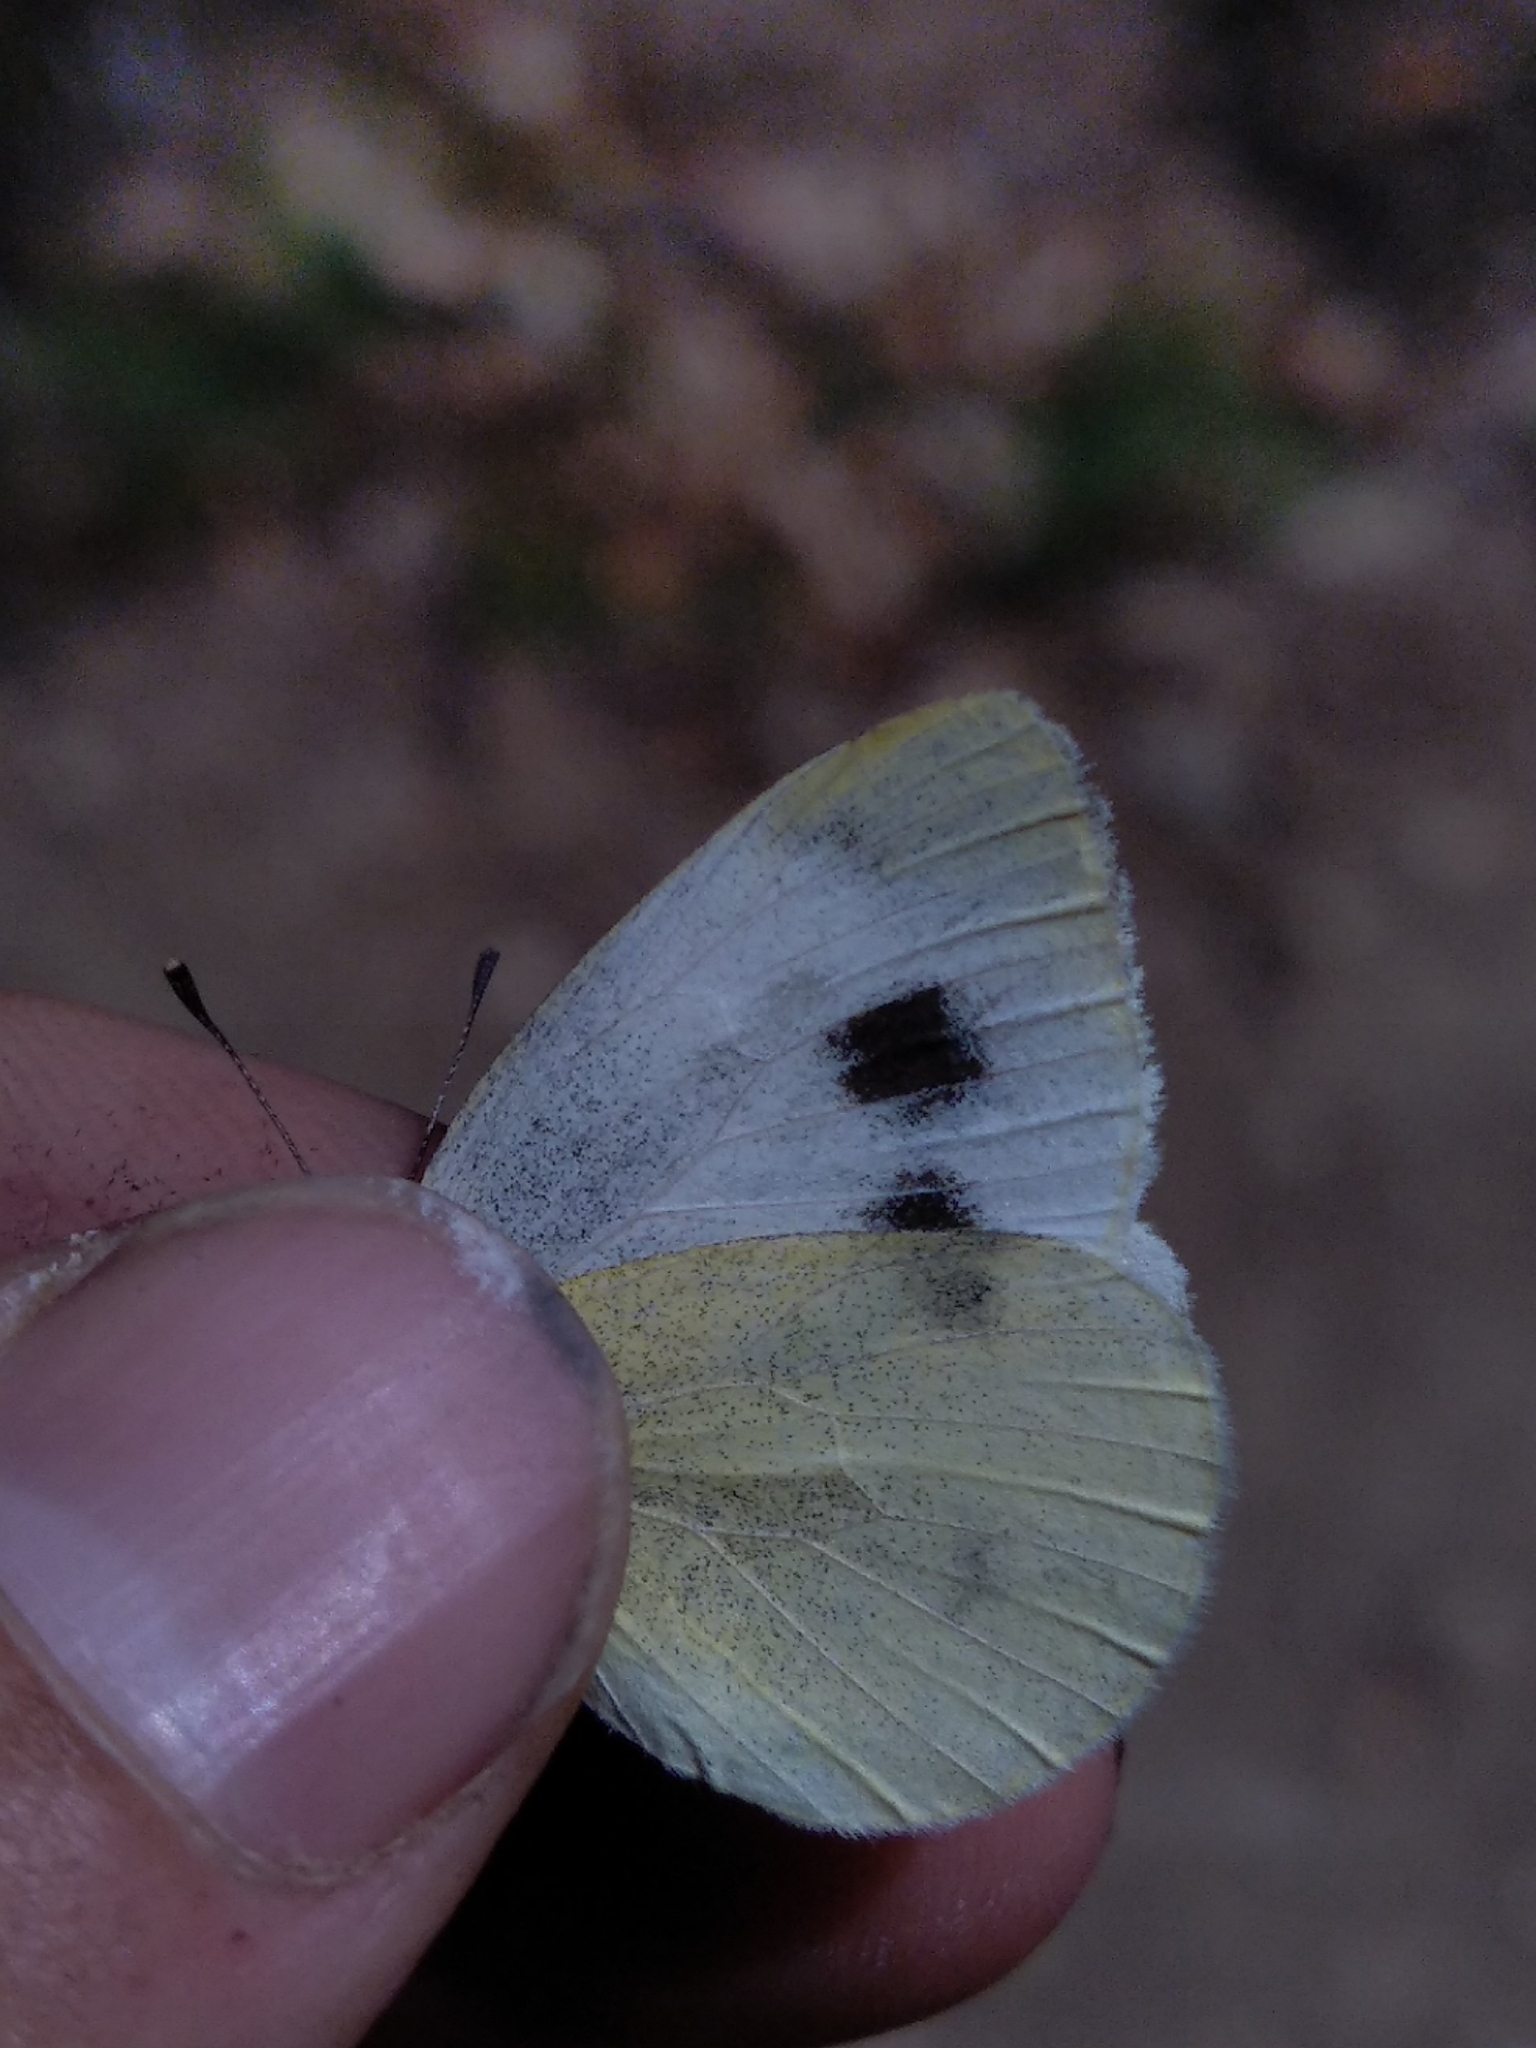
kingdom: Animalia
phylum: Arthropoda
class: Insecta
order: Lepidoptera
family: Pieridae
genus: Pieris
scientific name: Pieris mannii
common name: Southern small white
